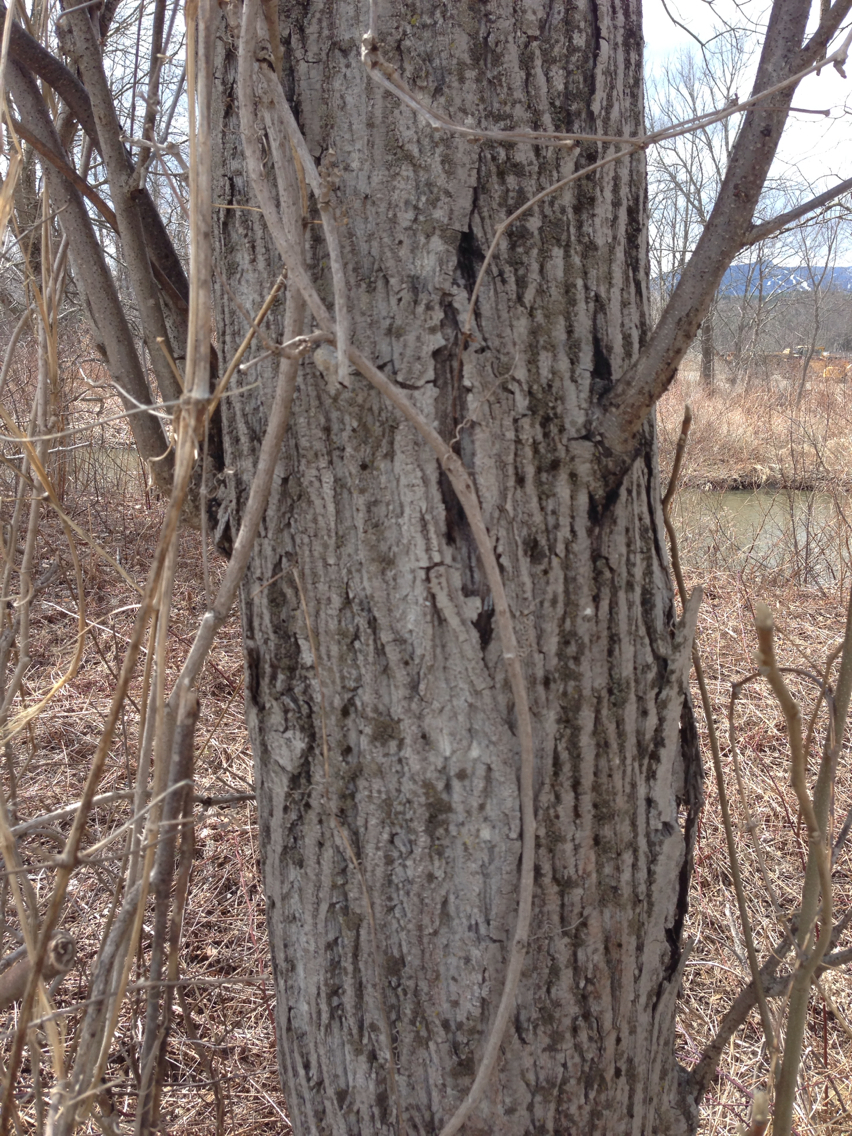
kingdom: Plantae
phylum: Tracheophyta
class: Magnoliopsida
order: Fagales
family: Juglandaceae
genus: Juglans
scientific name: Juglans cinerea
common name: Butternut
